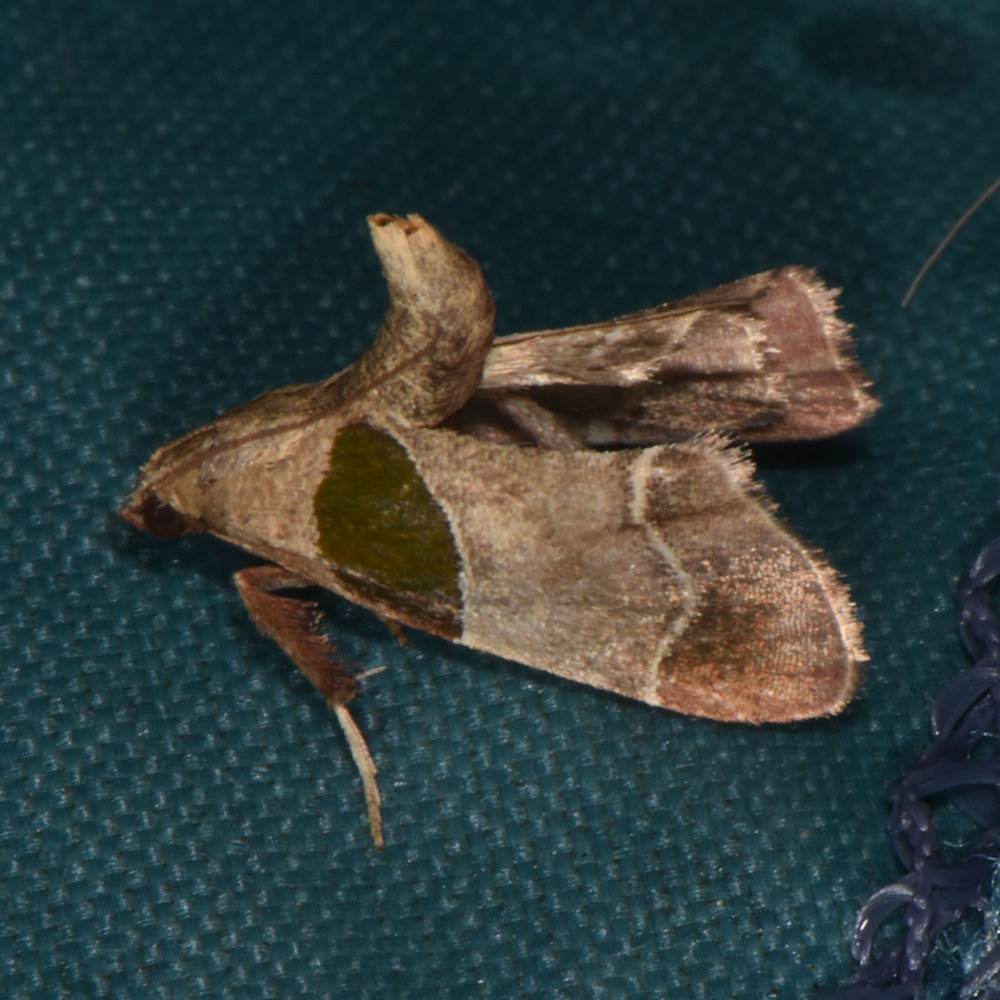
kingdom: Animalia
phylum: Arthropoda
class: Insecta
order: Lepidoptera
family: Pyralidae
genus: Tosale
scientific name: Tosale oviplagalis
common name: Dimorphic tosale moth
